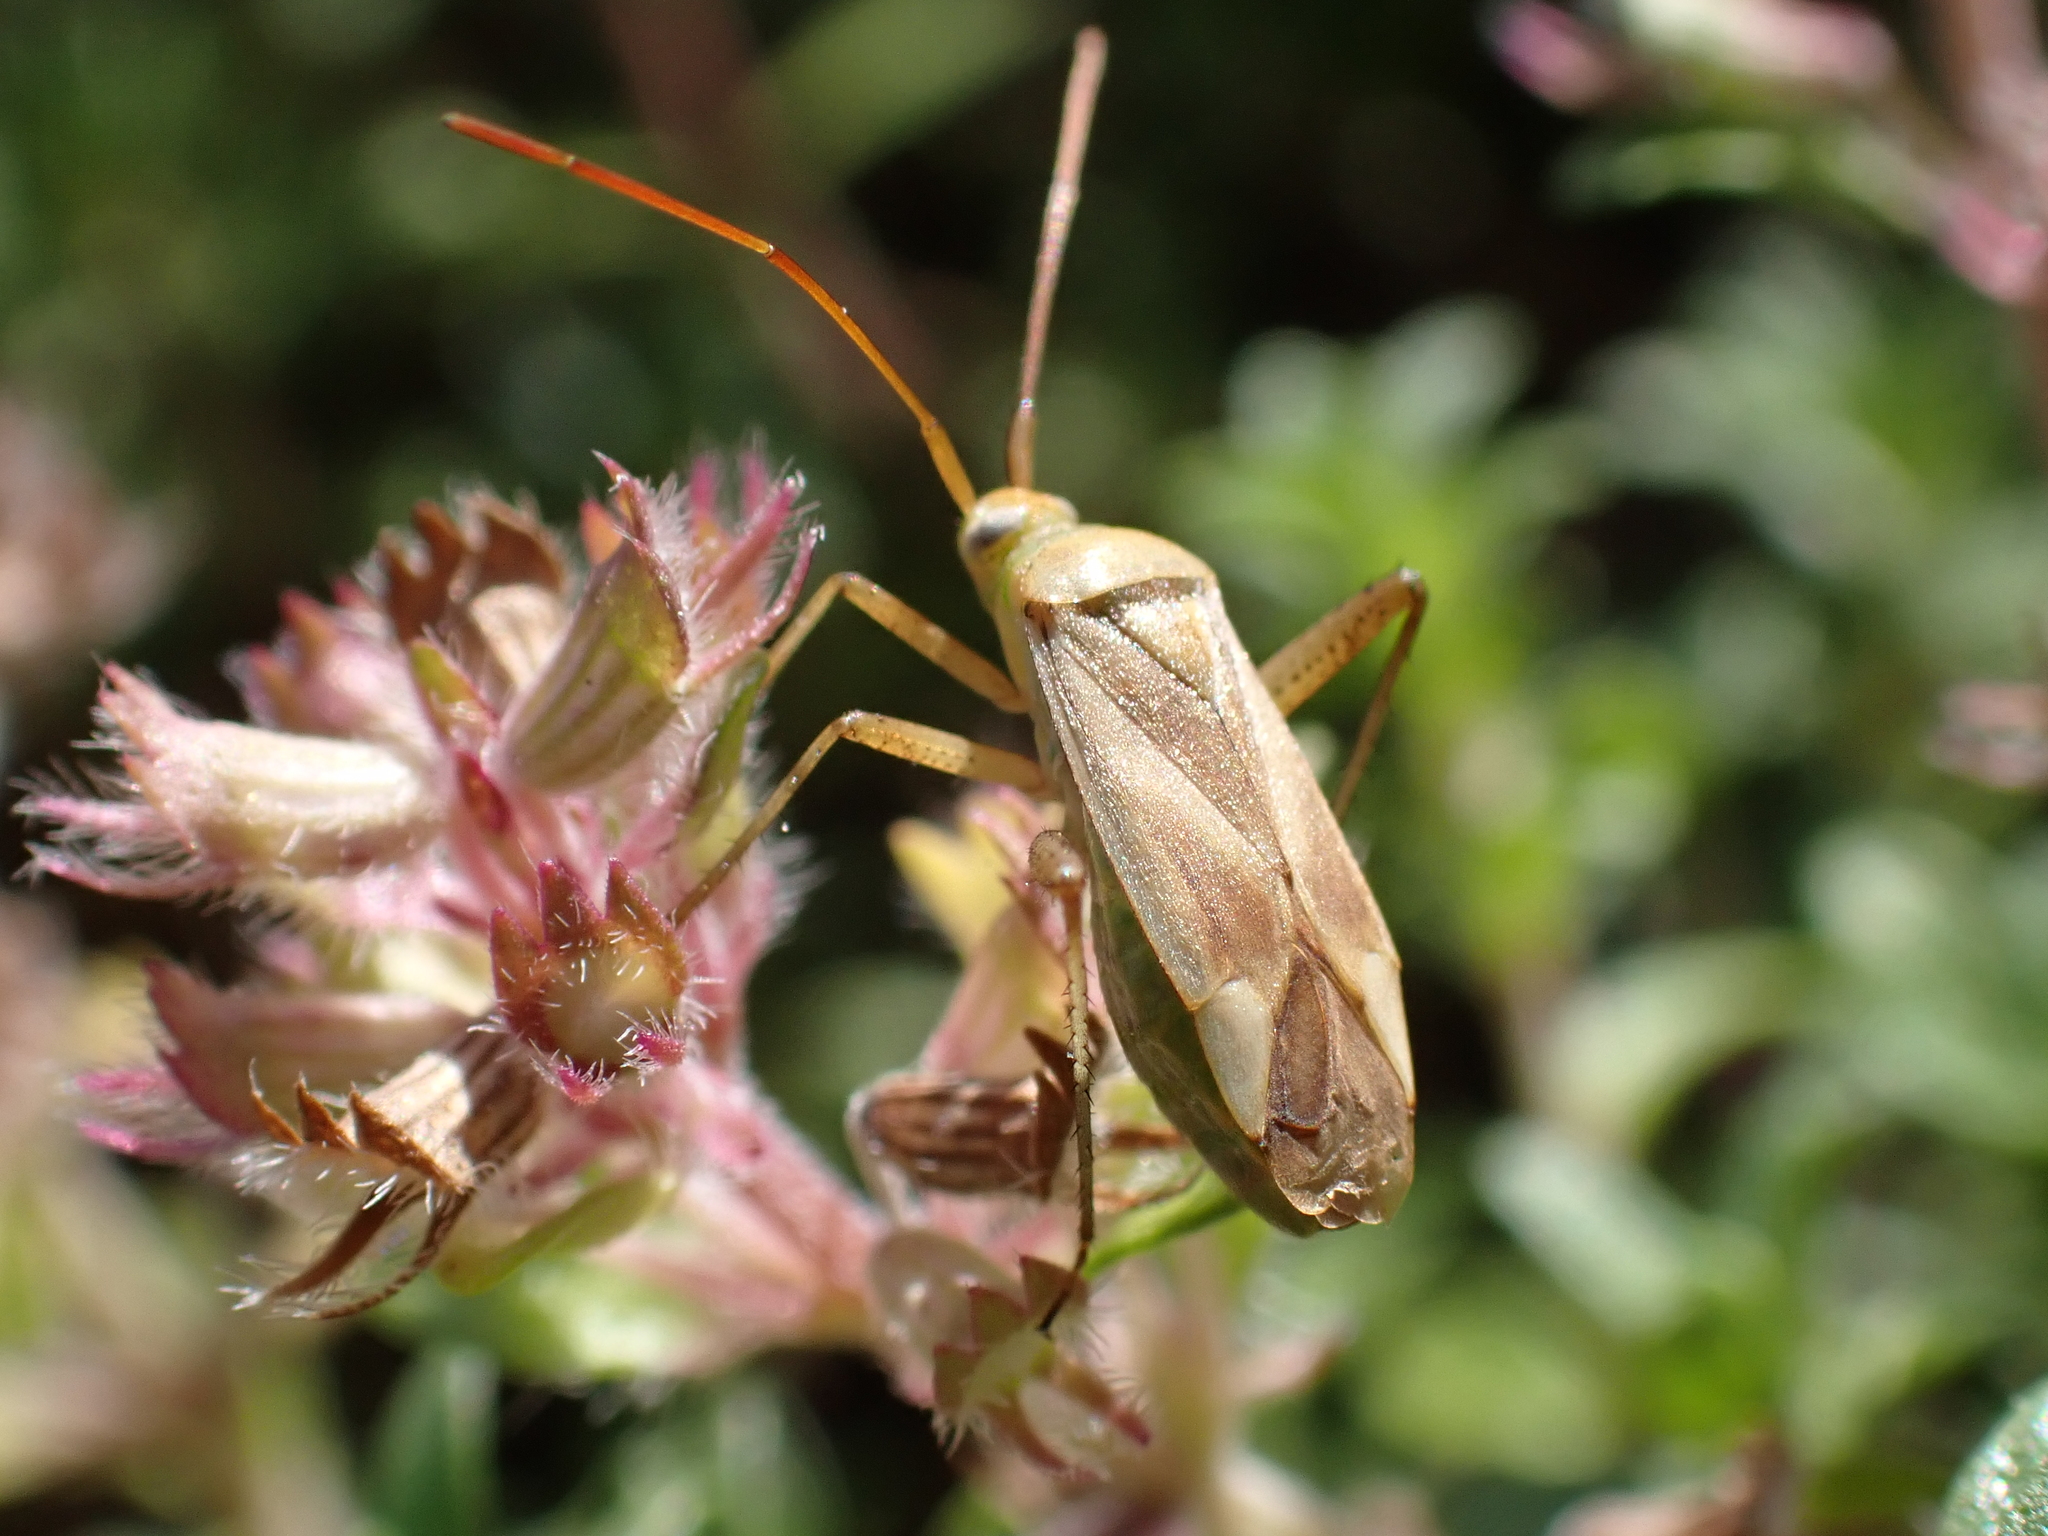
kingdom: Animalia
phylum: Arthropoda
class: Insecta
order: Hemiptera
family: Miridae
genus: Adelphocoris
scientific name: Adelphocoris lineolatus
